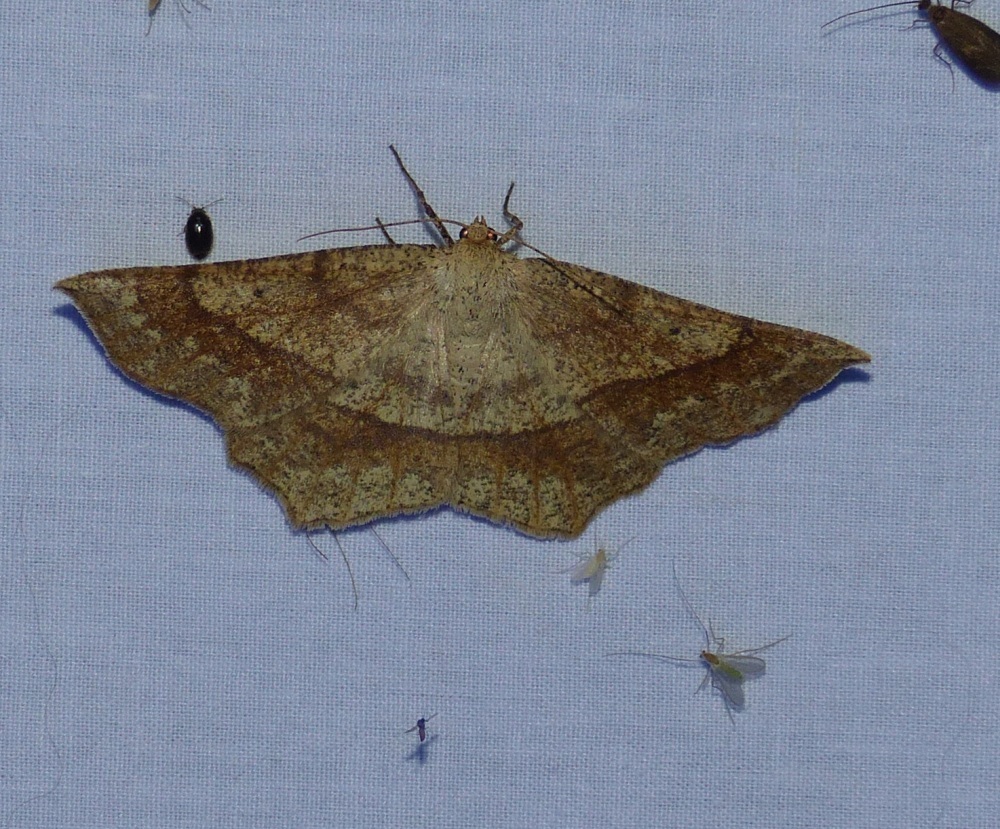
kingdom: Animalia
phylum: Arthropoda
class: Insecta
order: Lepidoptera
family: Geometridae
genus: Euchlaena
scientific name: Euchlaena marginaria
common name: Ochre euchlaena moth
